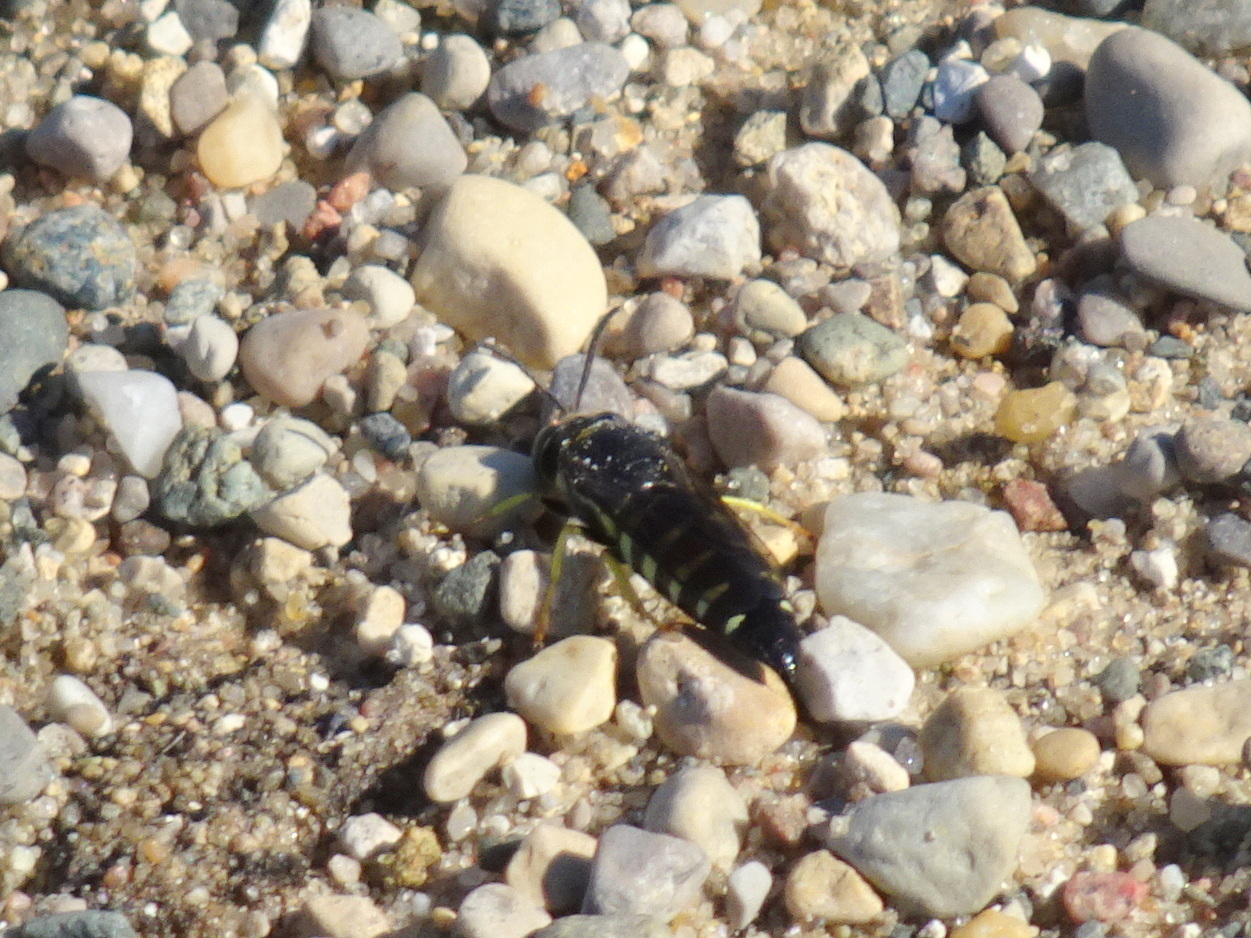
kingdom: Animalia
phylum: Arthropoda
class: Insecta
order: Hymenoptera
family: Crabronidae
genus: Bicyrtes
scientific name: Bicyrtes quadrifasciatus
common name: Four-banded stink bug hunter wasp
